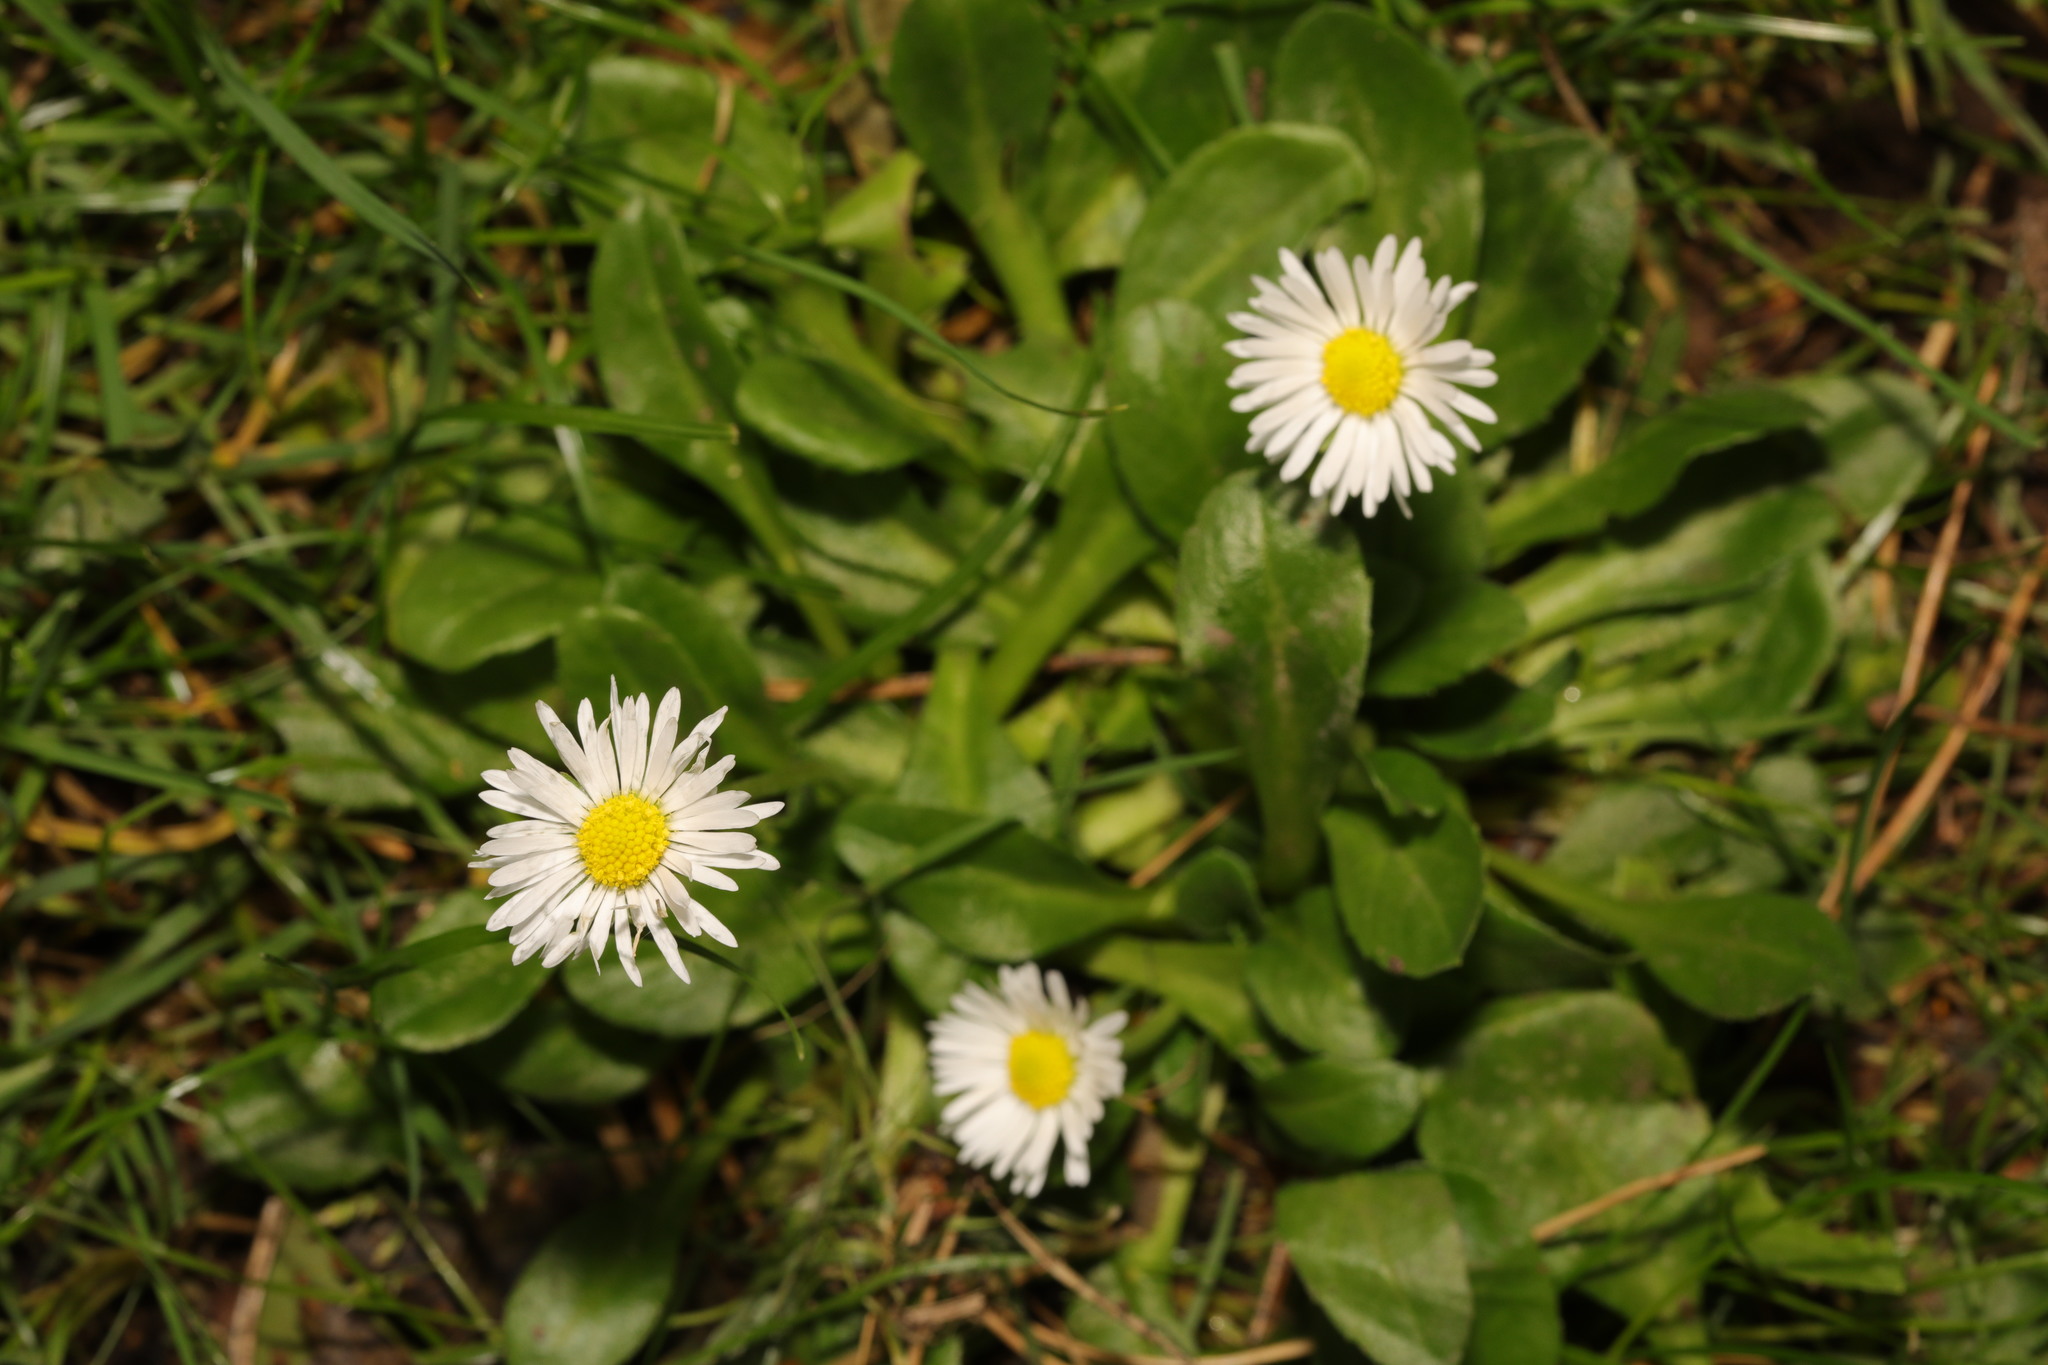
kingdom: Plantae
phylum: Tracheophyta
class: Magnoliopsida
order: Asterales
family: Asteraceae
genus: Bellis
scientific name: Bellis perennis
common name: Lawndaisy
